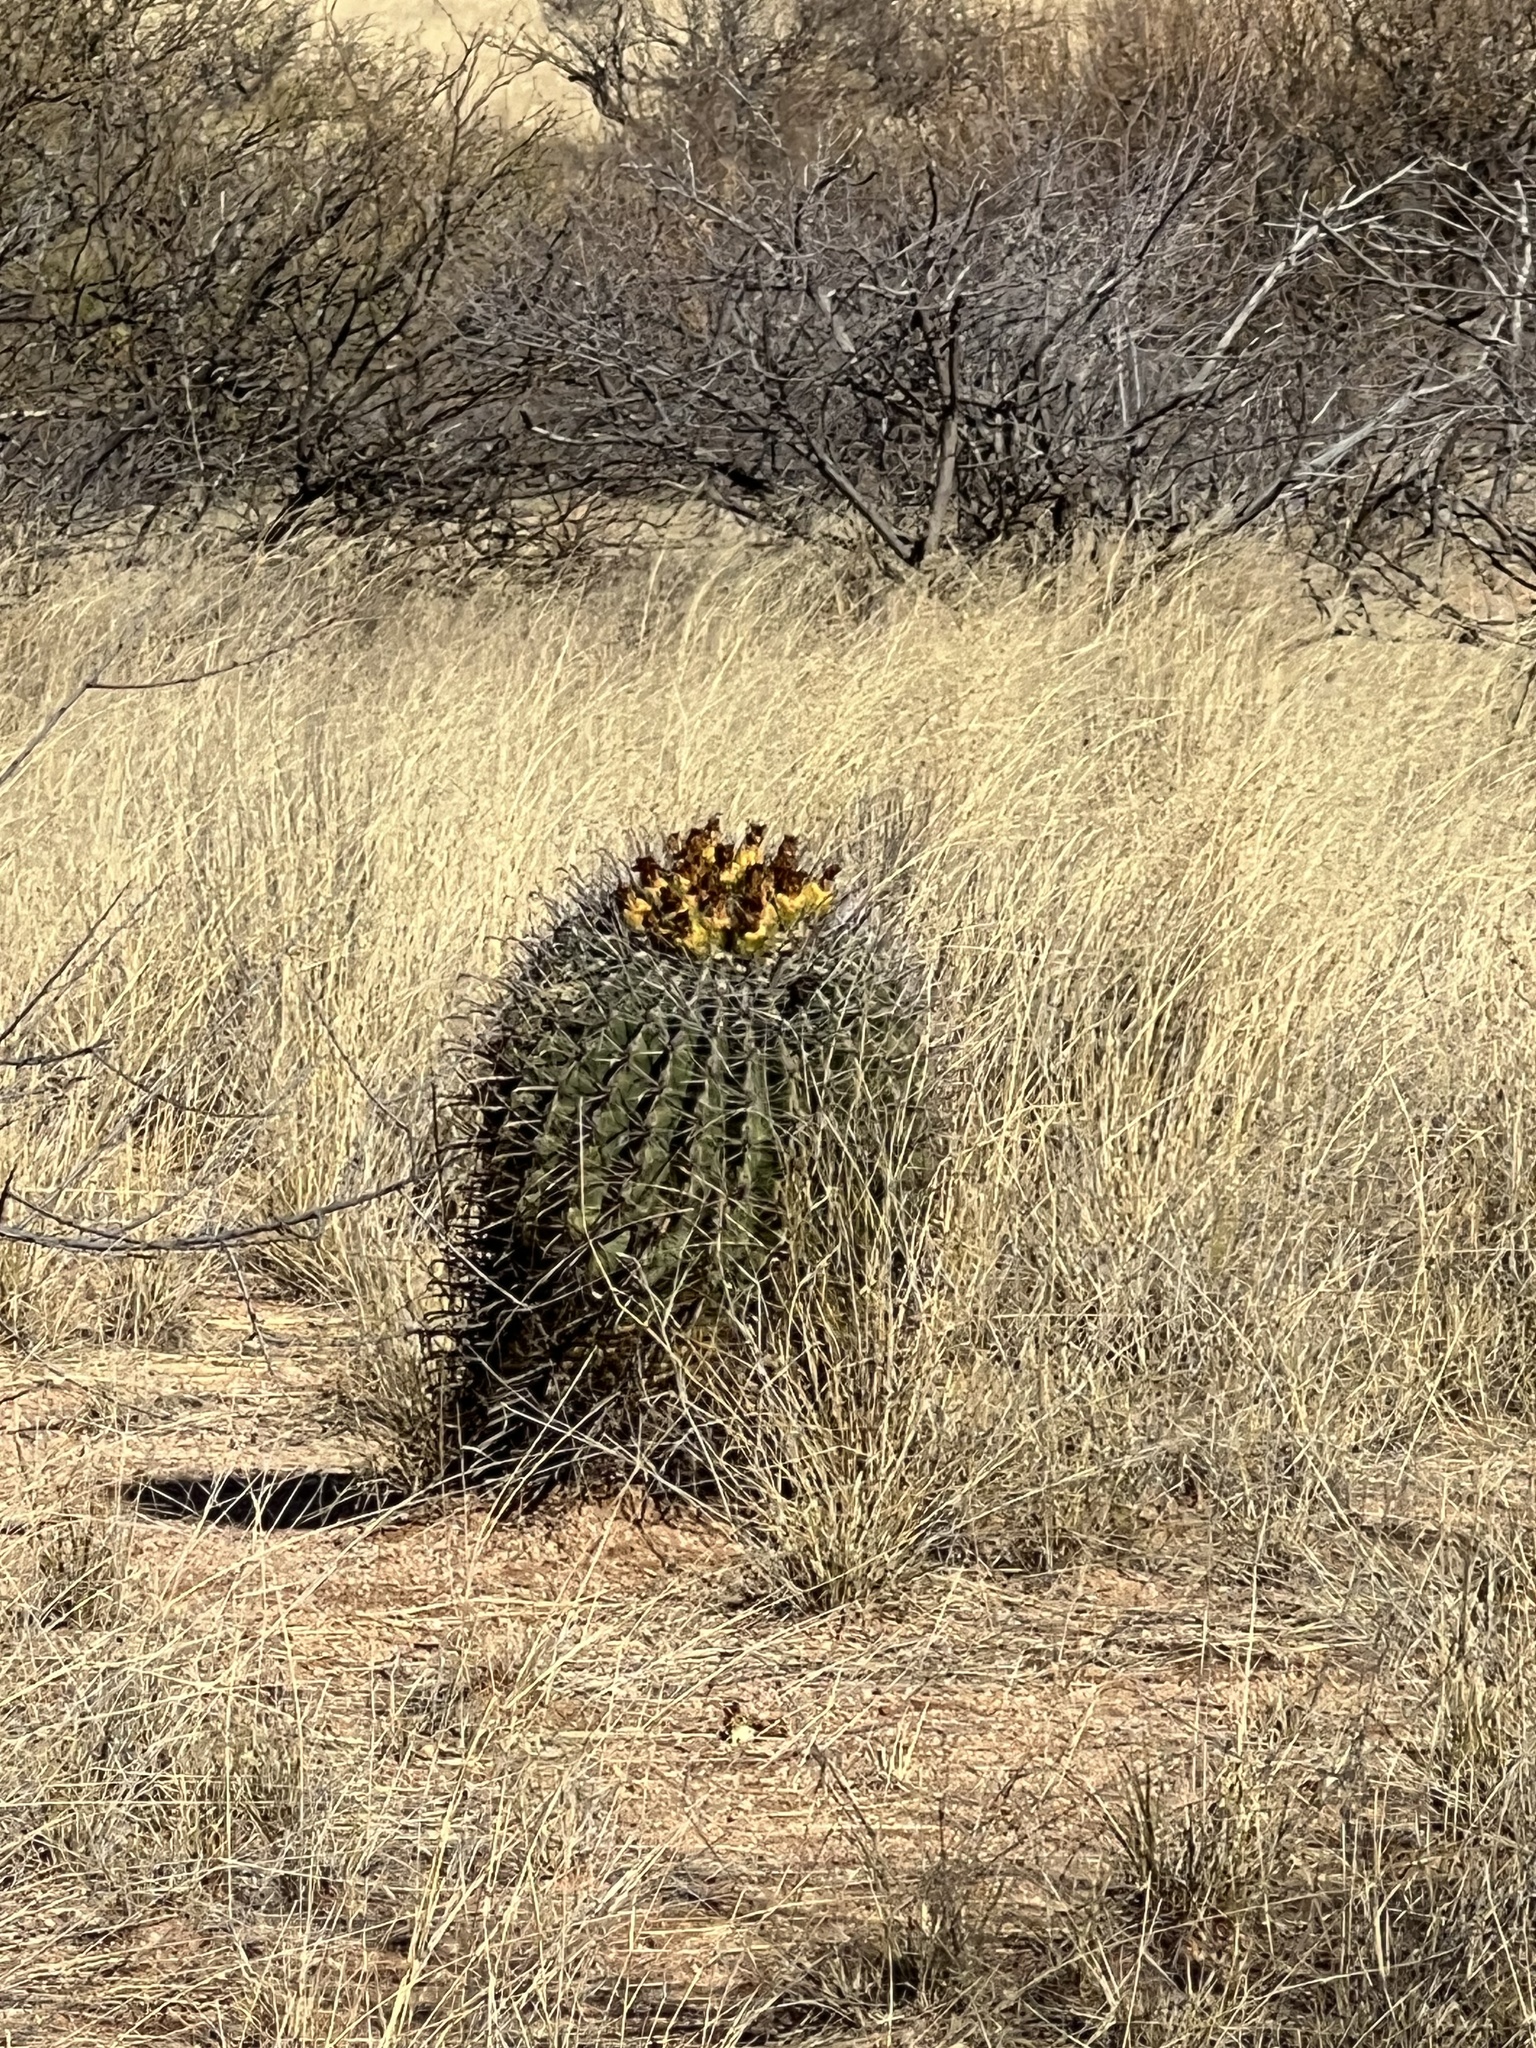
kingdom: Plantae
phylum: Tracheophyta
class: Magnoliopsida
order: Caryophyllales
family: Cactaceae
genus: Ferocactus
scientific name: Ferocactus wislizeni
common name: Candy barrel cactus
